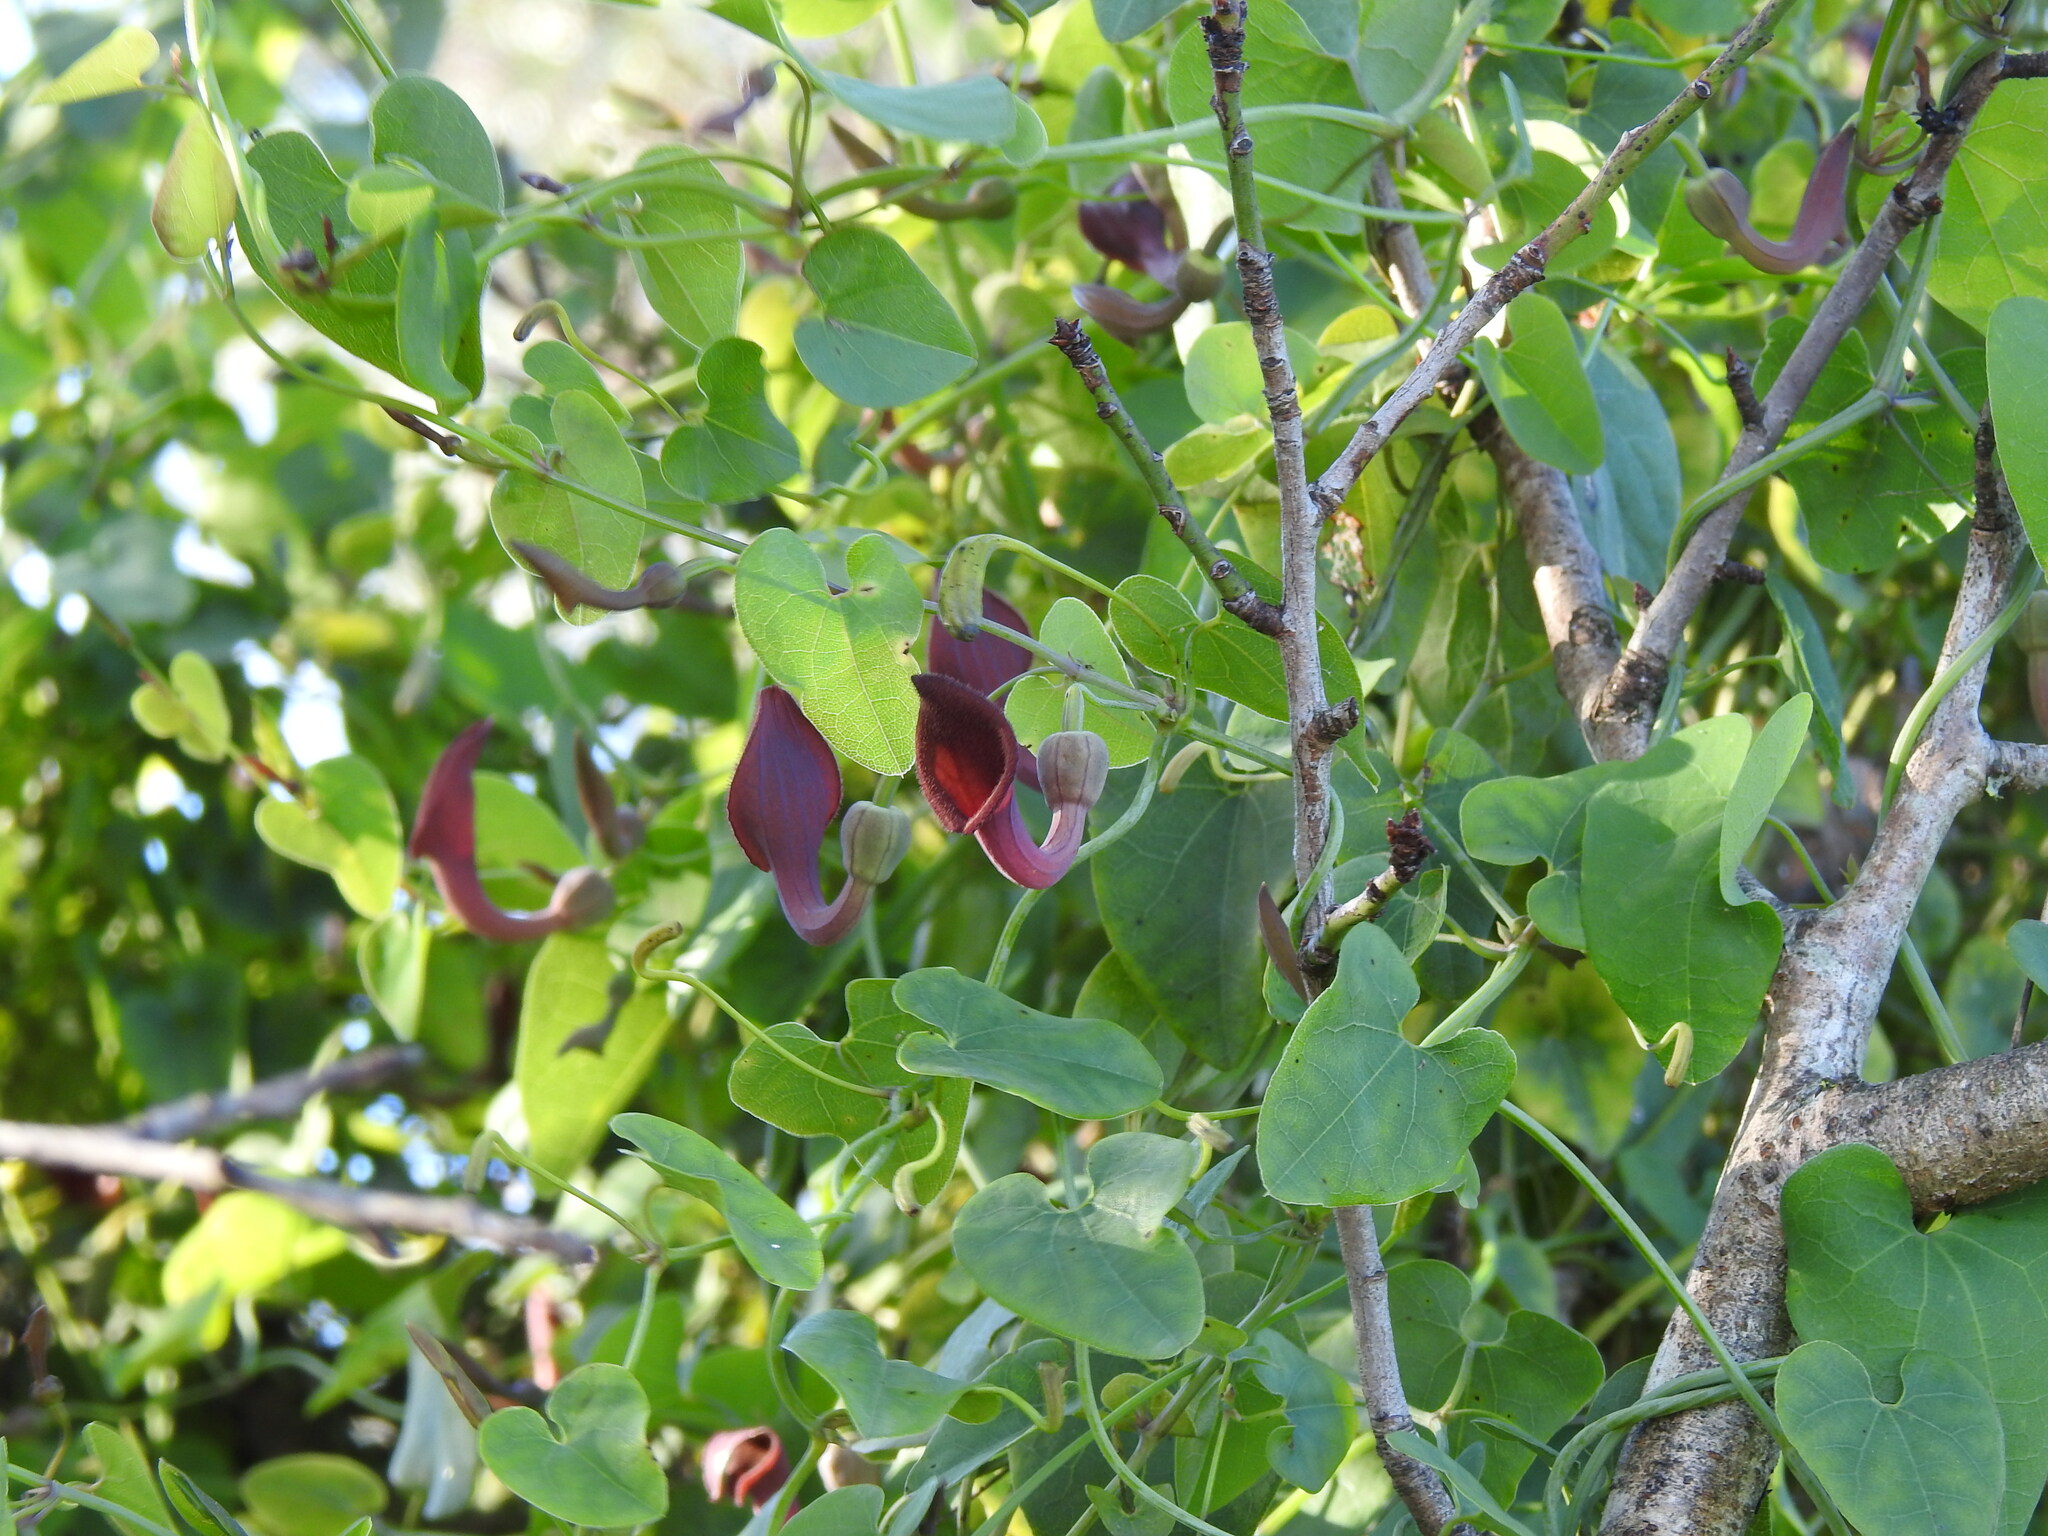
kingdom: Plantae
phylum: Tracheophyta
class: Magnoliopsida
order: Piperales
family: Aristolochiaceae
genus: Aristolochia
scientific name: Aristolochia baetica
